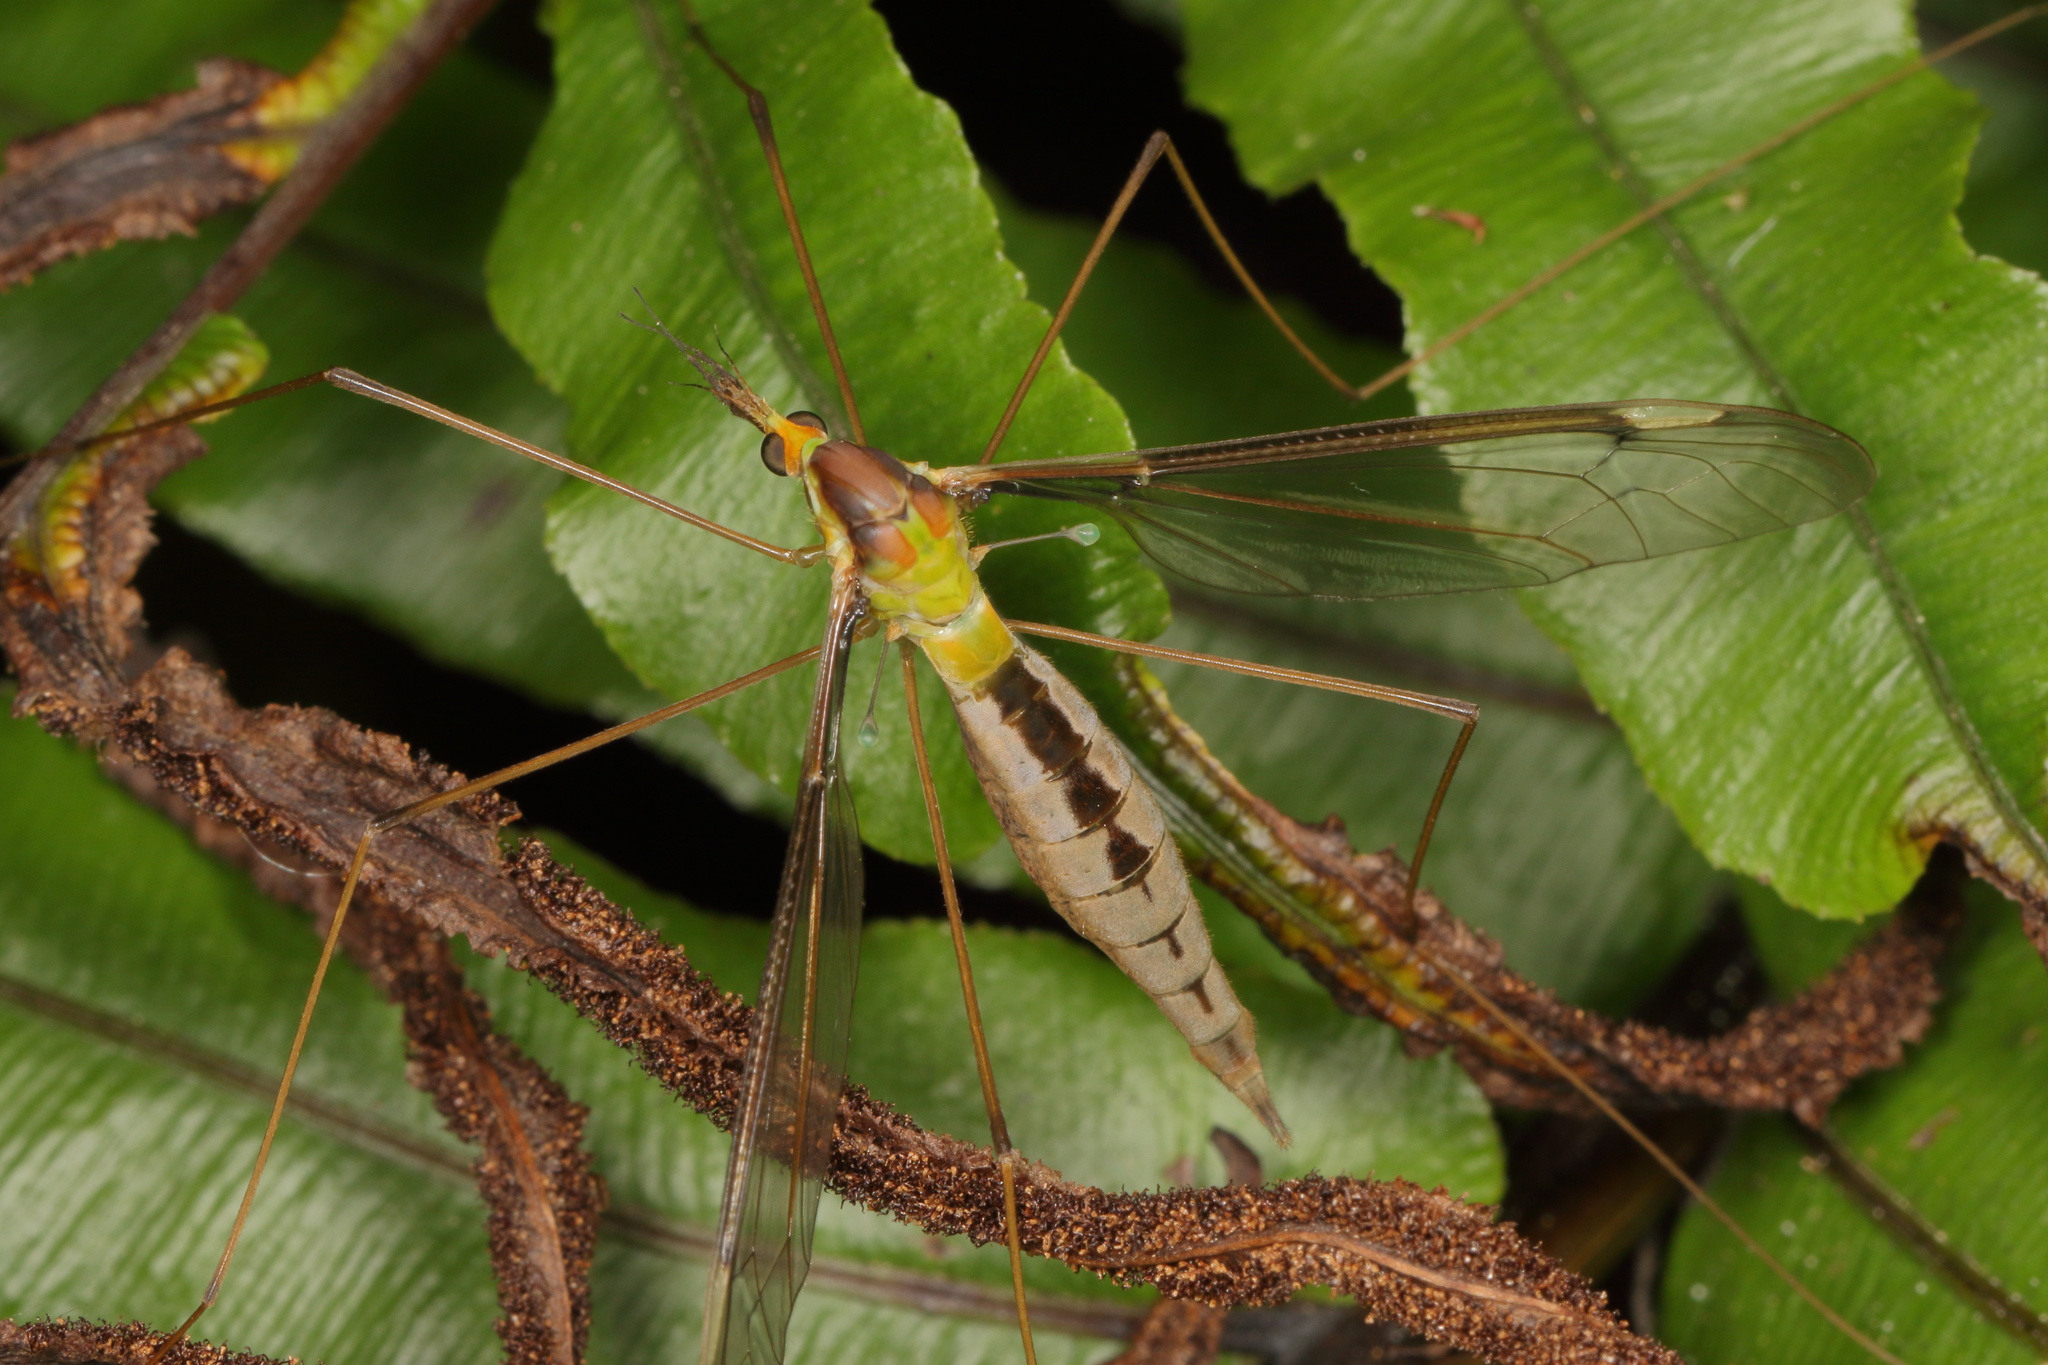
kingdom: Animalia
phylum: Arthropoda
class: Insecta
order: Diptera
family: Tipulidae
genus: Leptotarsus
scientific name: Leptotarsus albistigma
